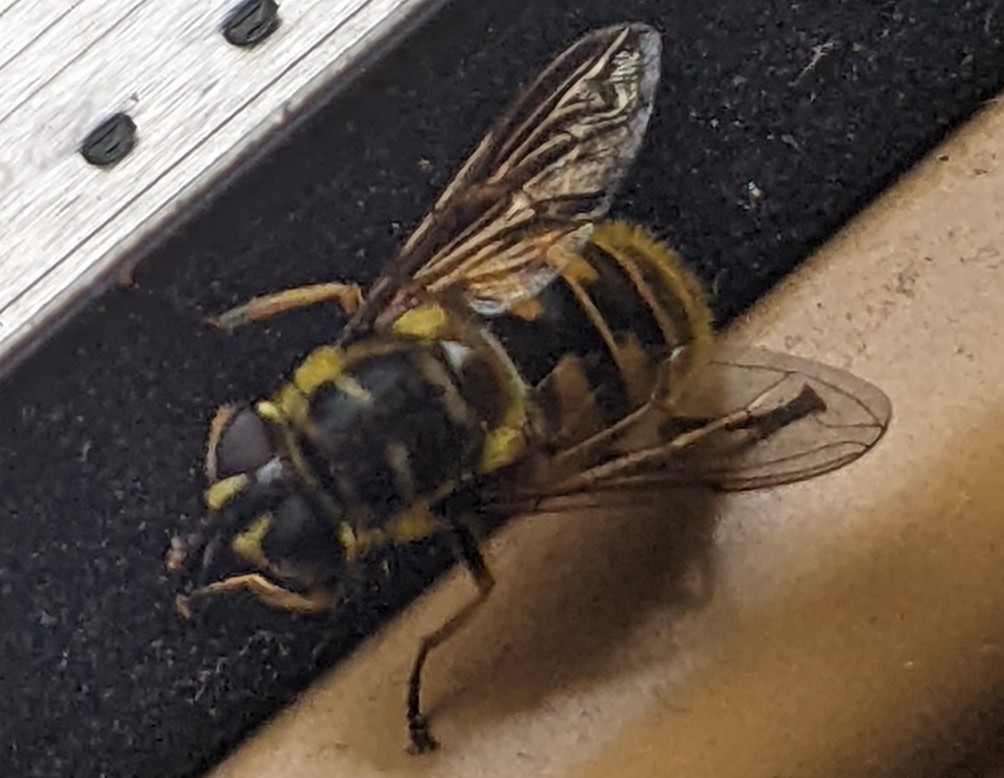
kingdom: Animalia
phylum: Arthropoda
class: Insecta
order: Diptera
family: Syrphidae
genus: Myathropa
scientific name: Myathropa florea
